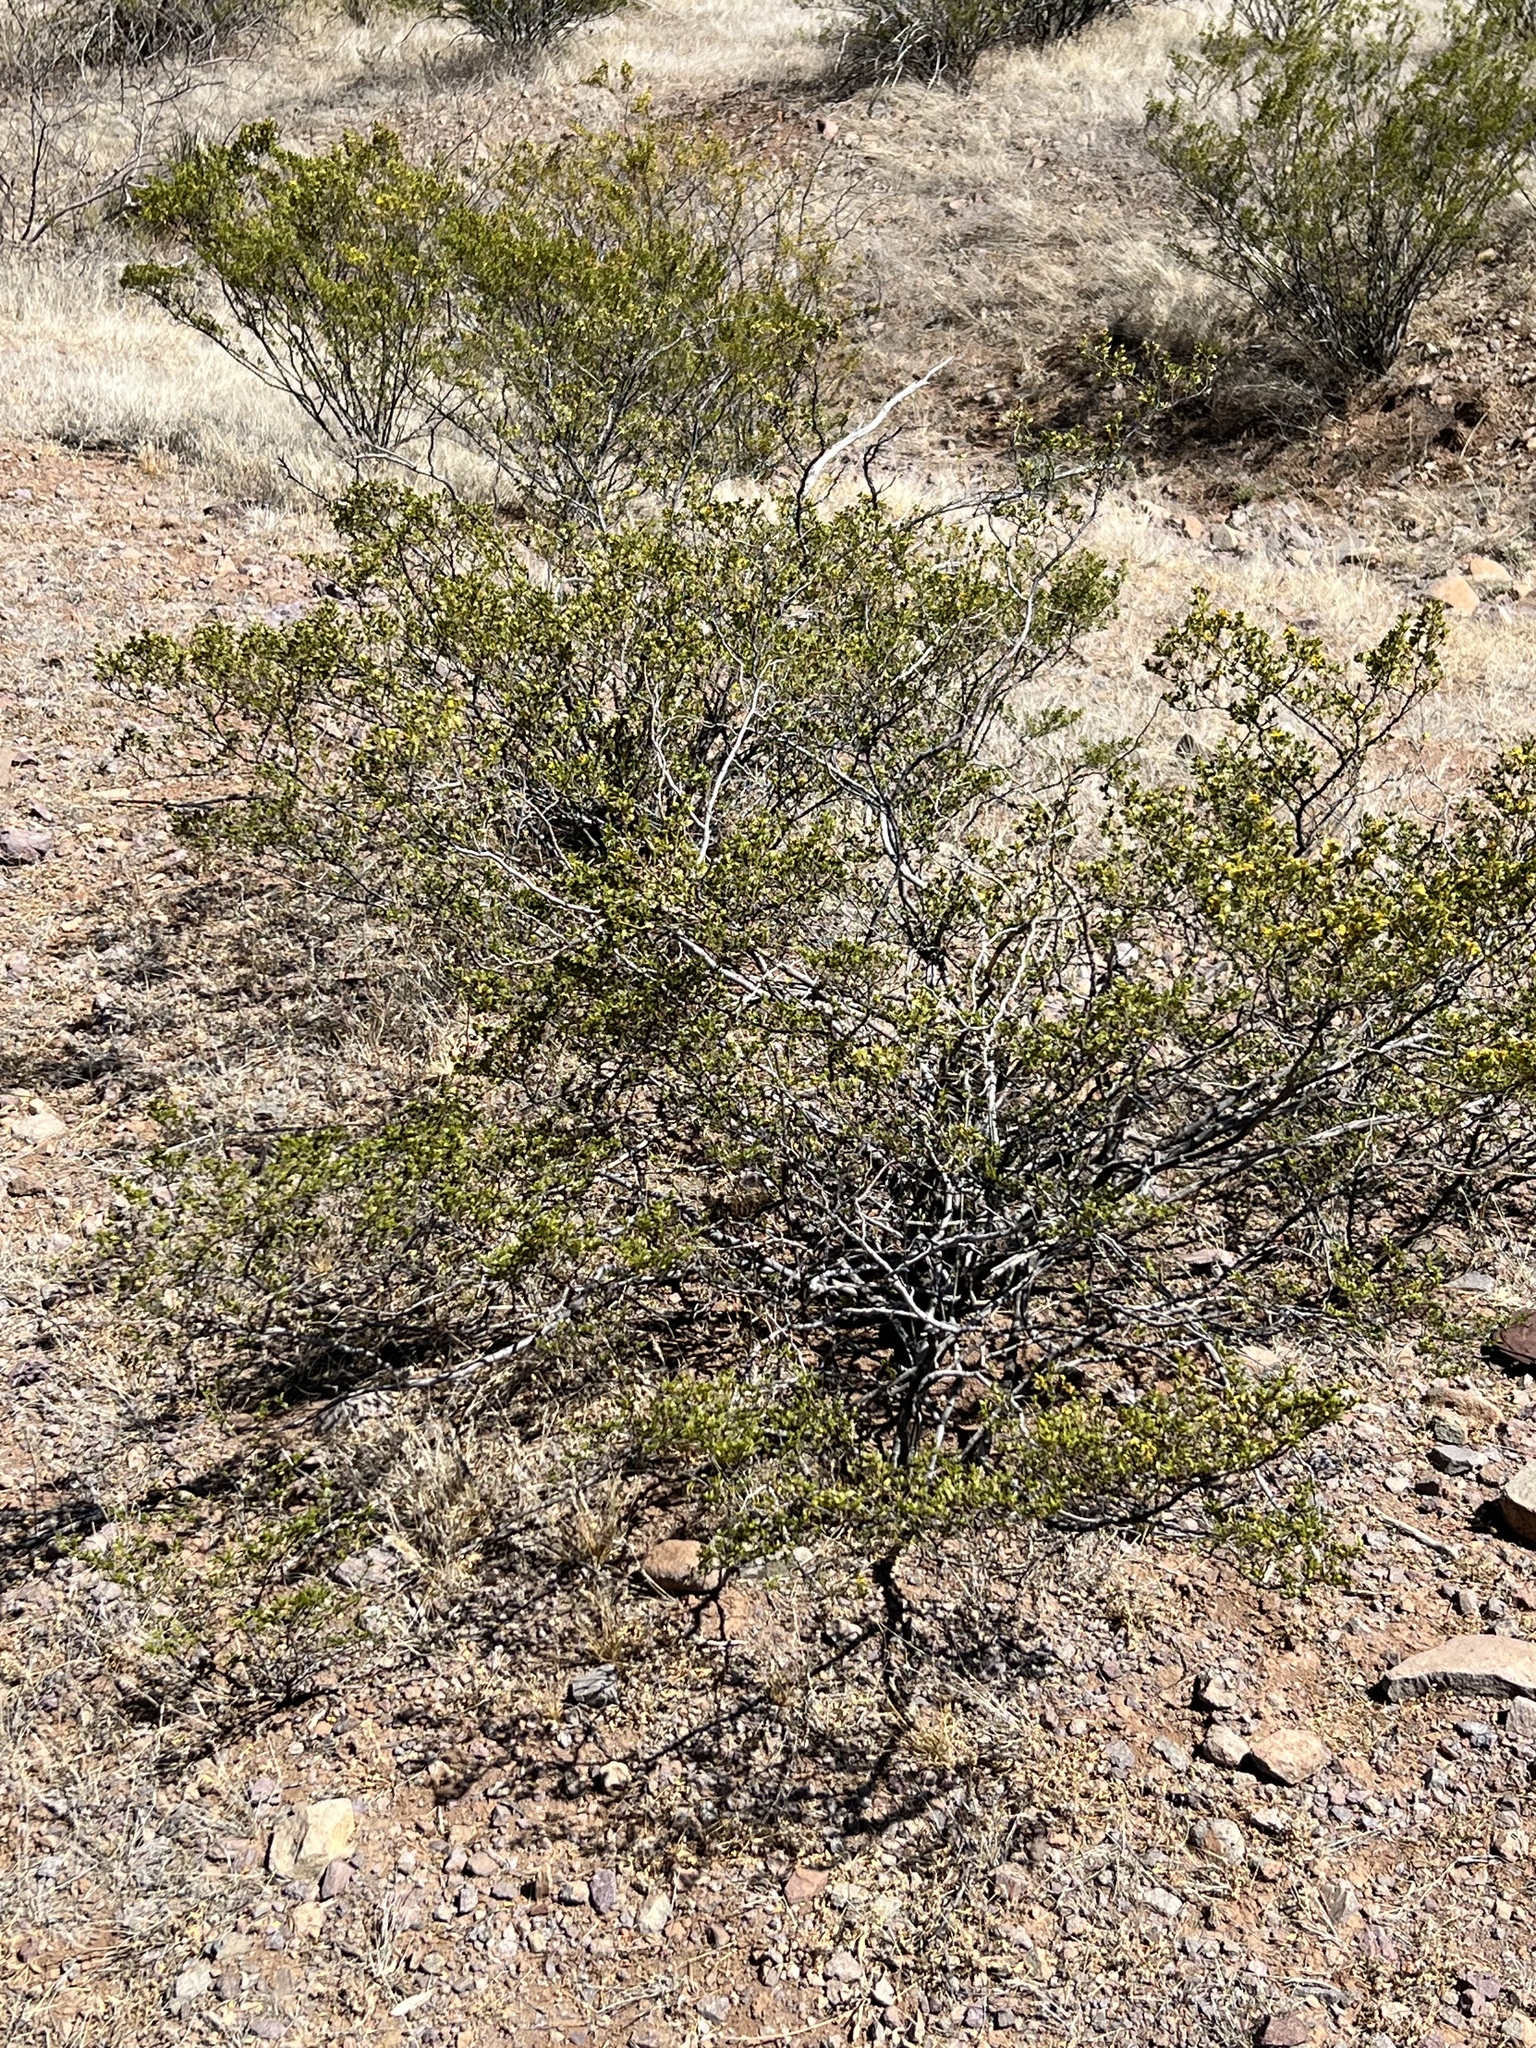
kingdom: Plantae
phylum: Tracheophyta
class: Magnoliopsida
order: Zygophyllales
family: Zygophyllaceae
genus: Larrea
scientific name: Larrea tridentata
